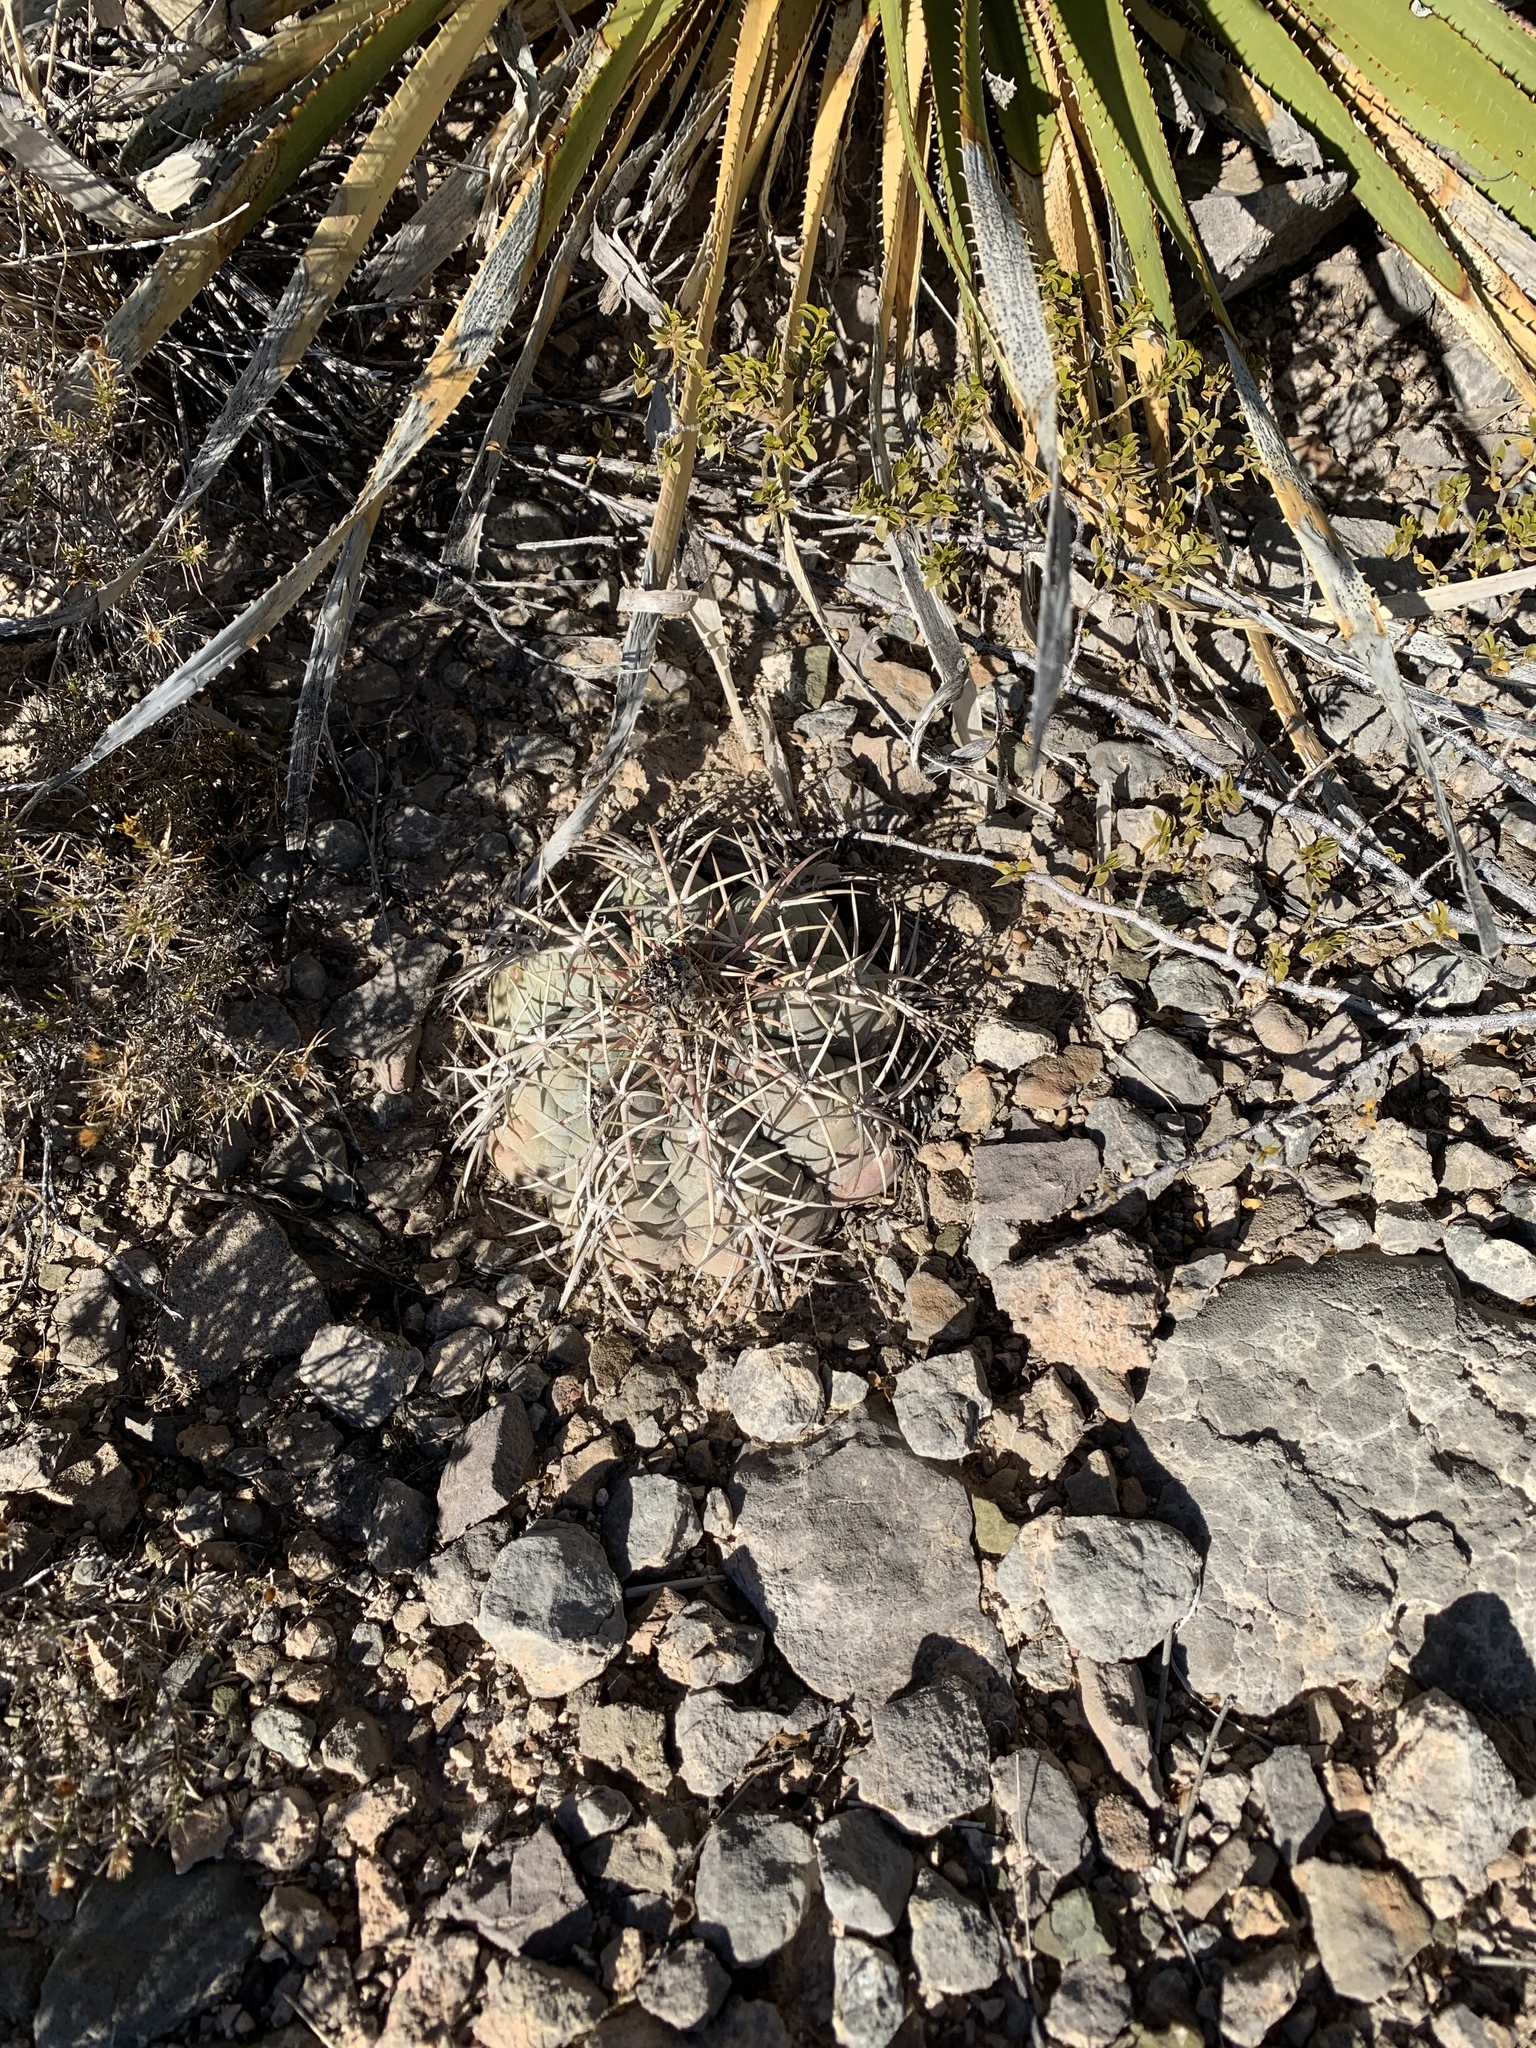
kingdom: Plantae
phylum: Tracheophyta
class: Magnoliopsida
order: Caryophyllales
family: Cactaceae
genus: Echinocactus
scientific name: Echinocactus horizonthalonius
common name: Devilshead
